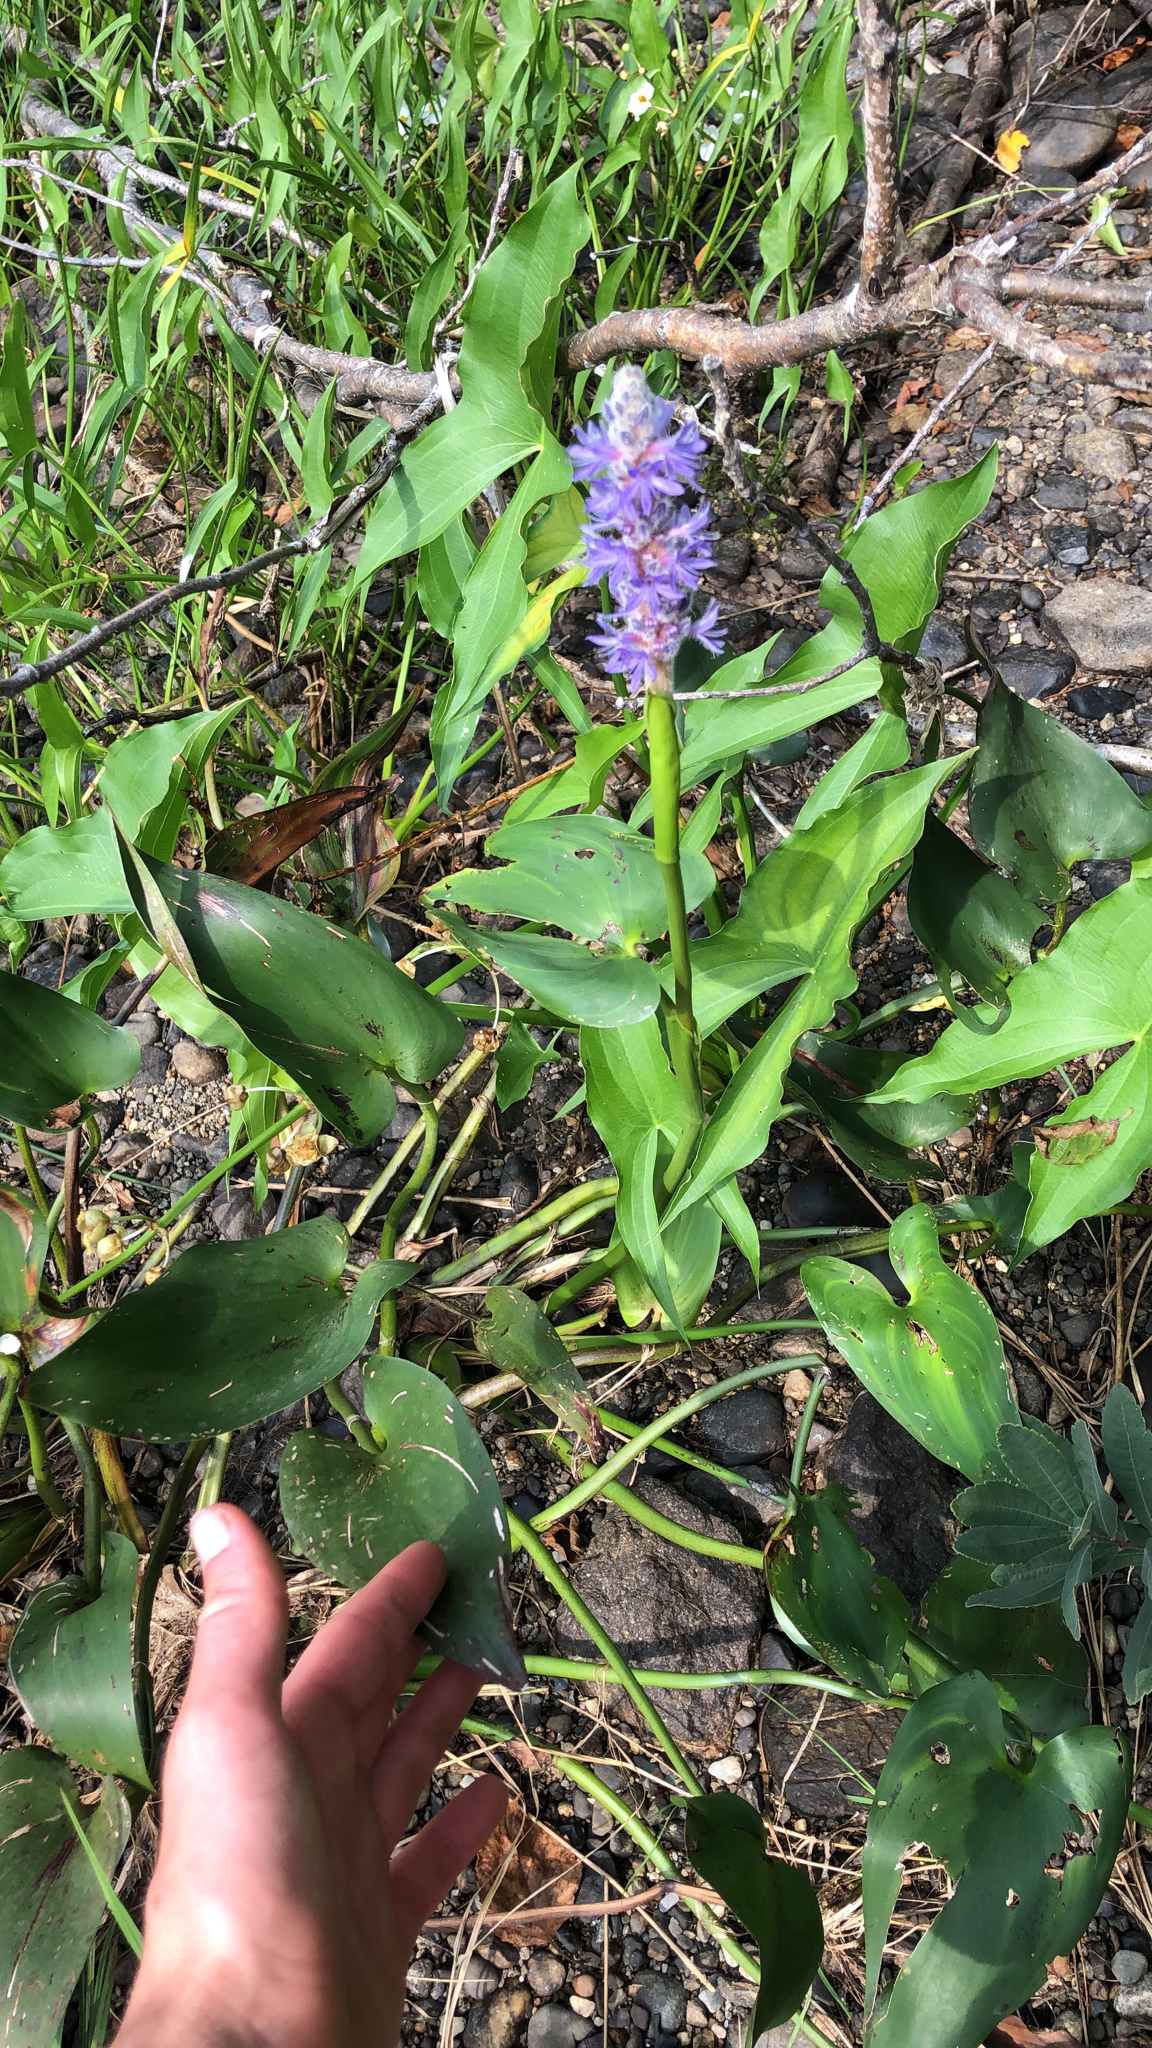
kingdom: Plantae
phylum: Tracheophyta
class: Liliopsida
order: Commelinales
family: Pontederiaceae
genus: Pontederia
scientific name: Pontederia cordata
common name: Pickerelweed
